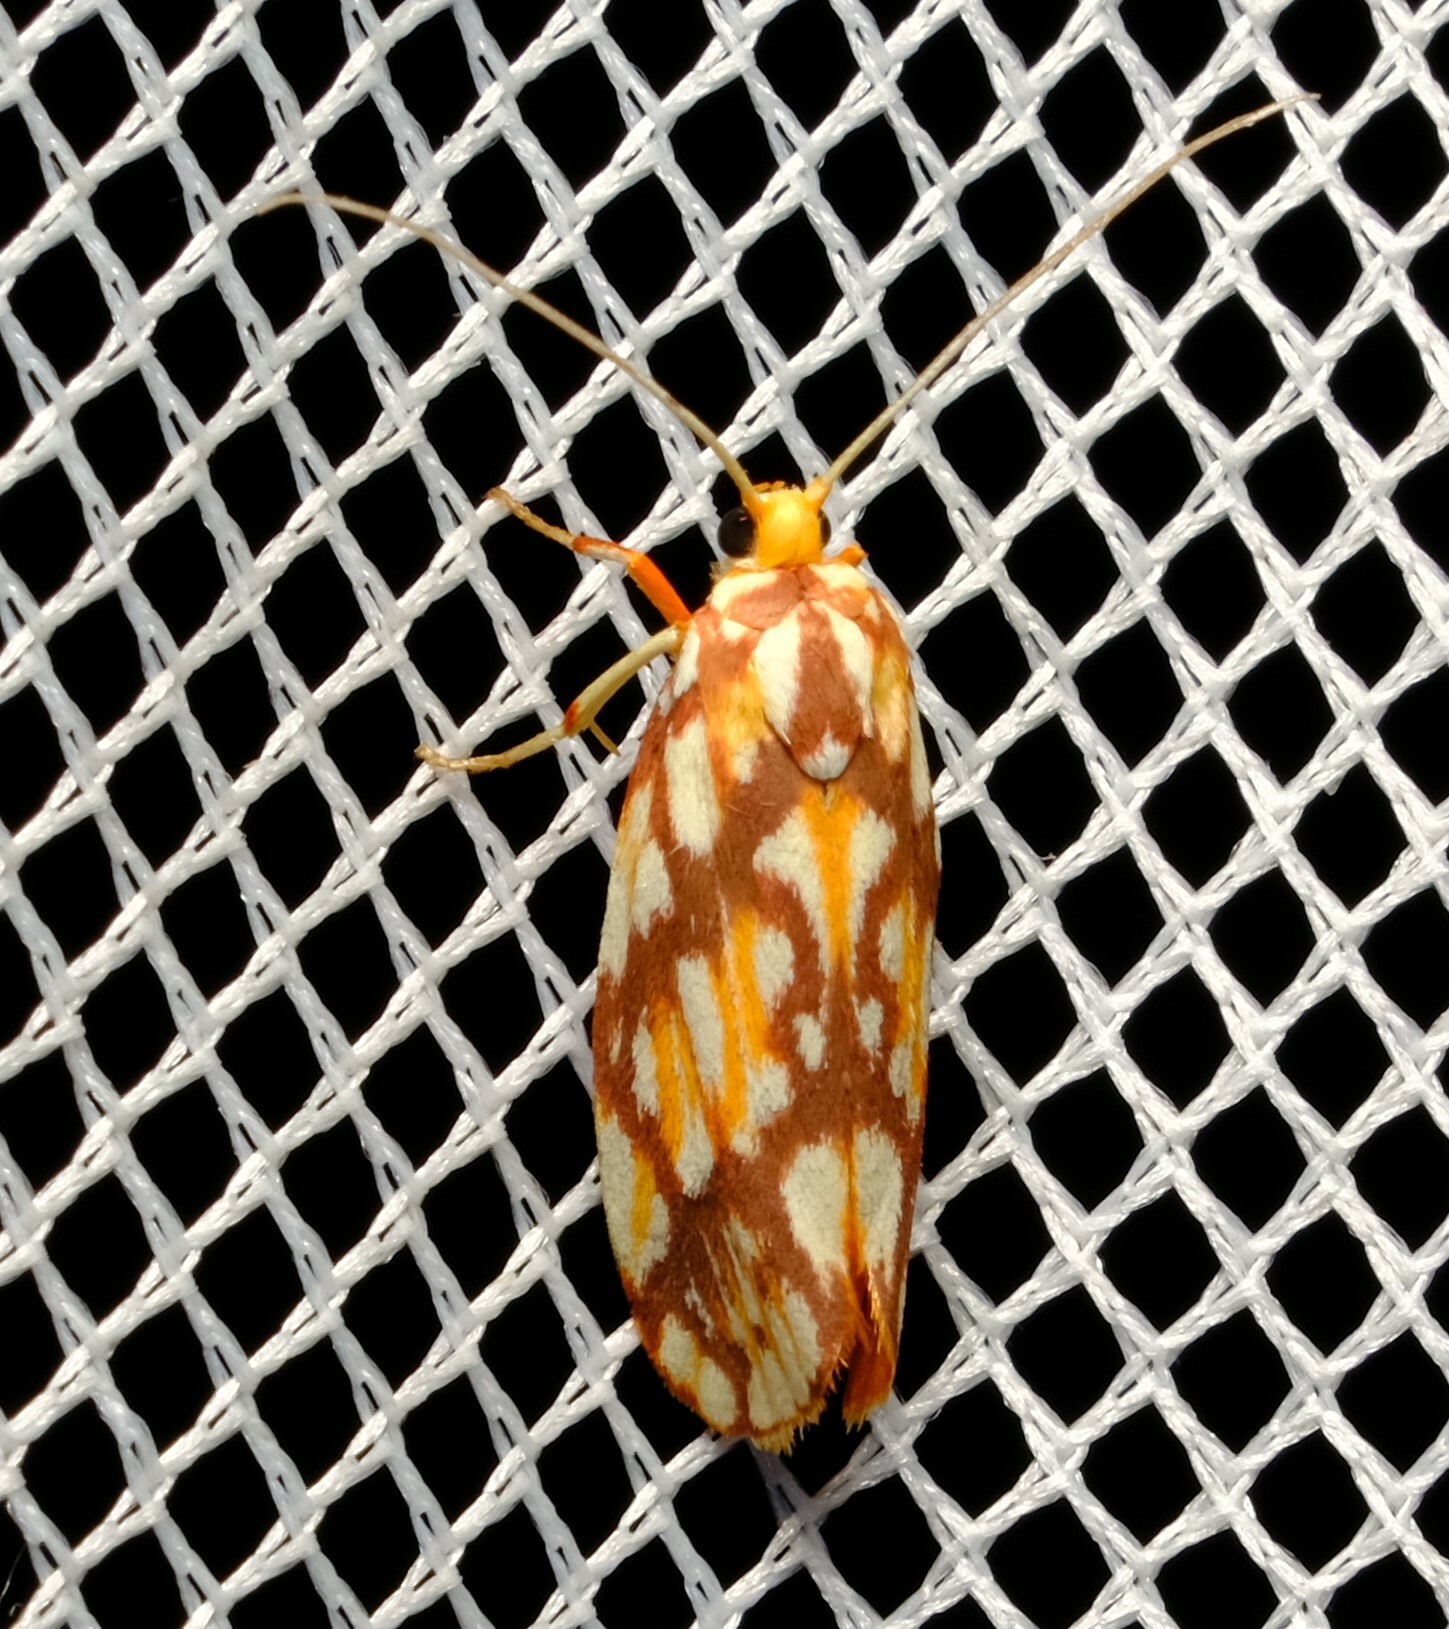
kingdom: Animalia
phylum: Arthropoda
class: Insecta
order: Lepidoptera
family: Lacturidae
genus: Lactura
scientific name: Lactura panopsia
